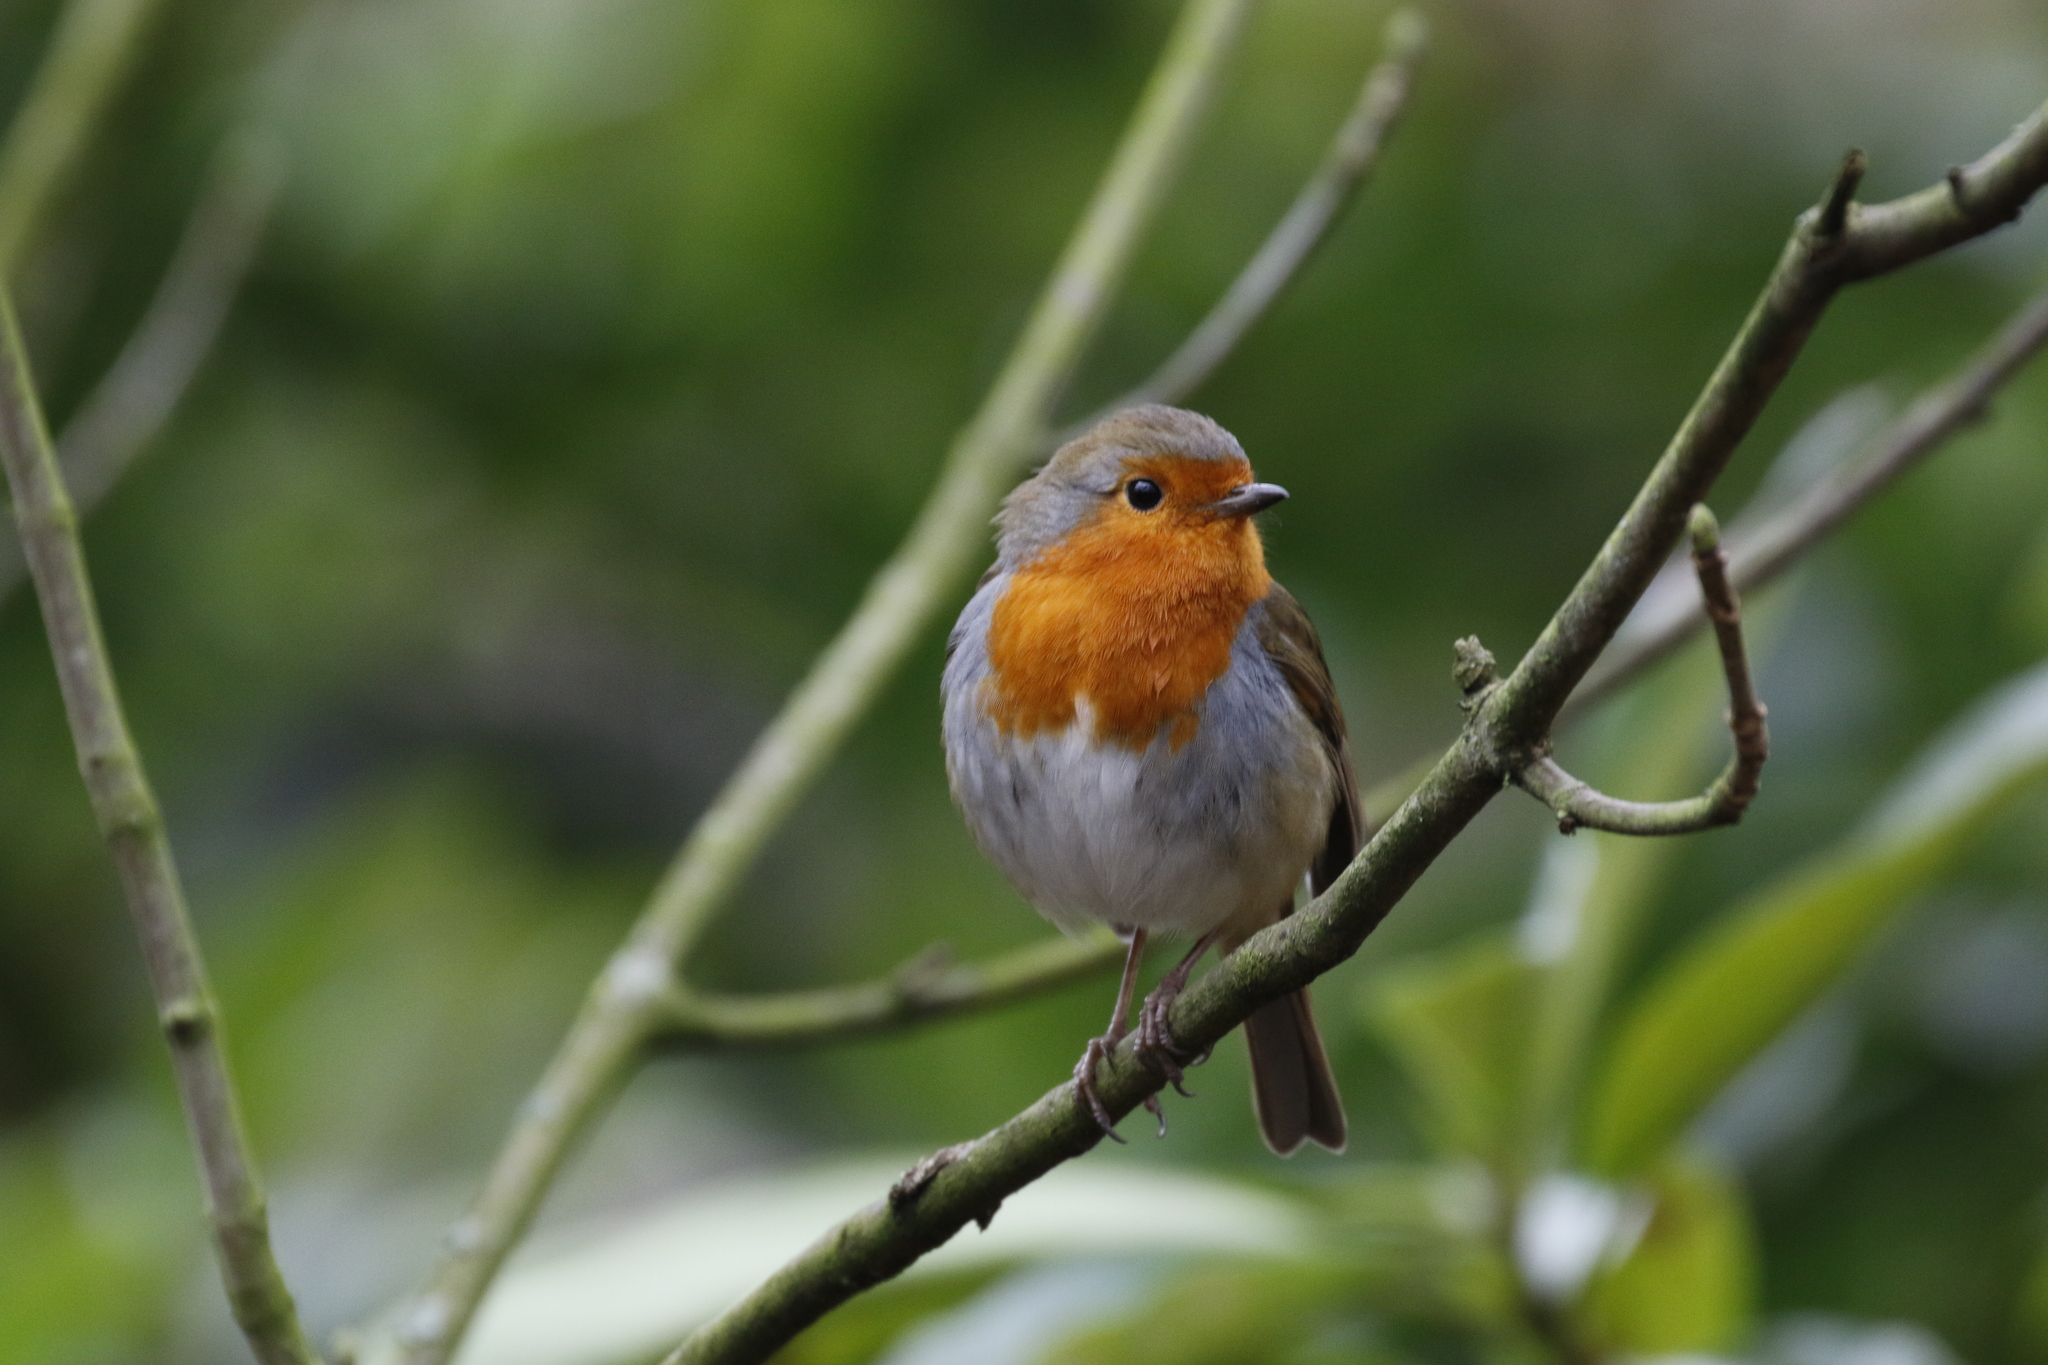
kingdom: Animalia
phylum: Chordata
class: Aves
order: Passeriformes
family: Muscicapidae
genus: Erithacus
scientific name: Erithacus rubecula
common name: European robin
